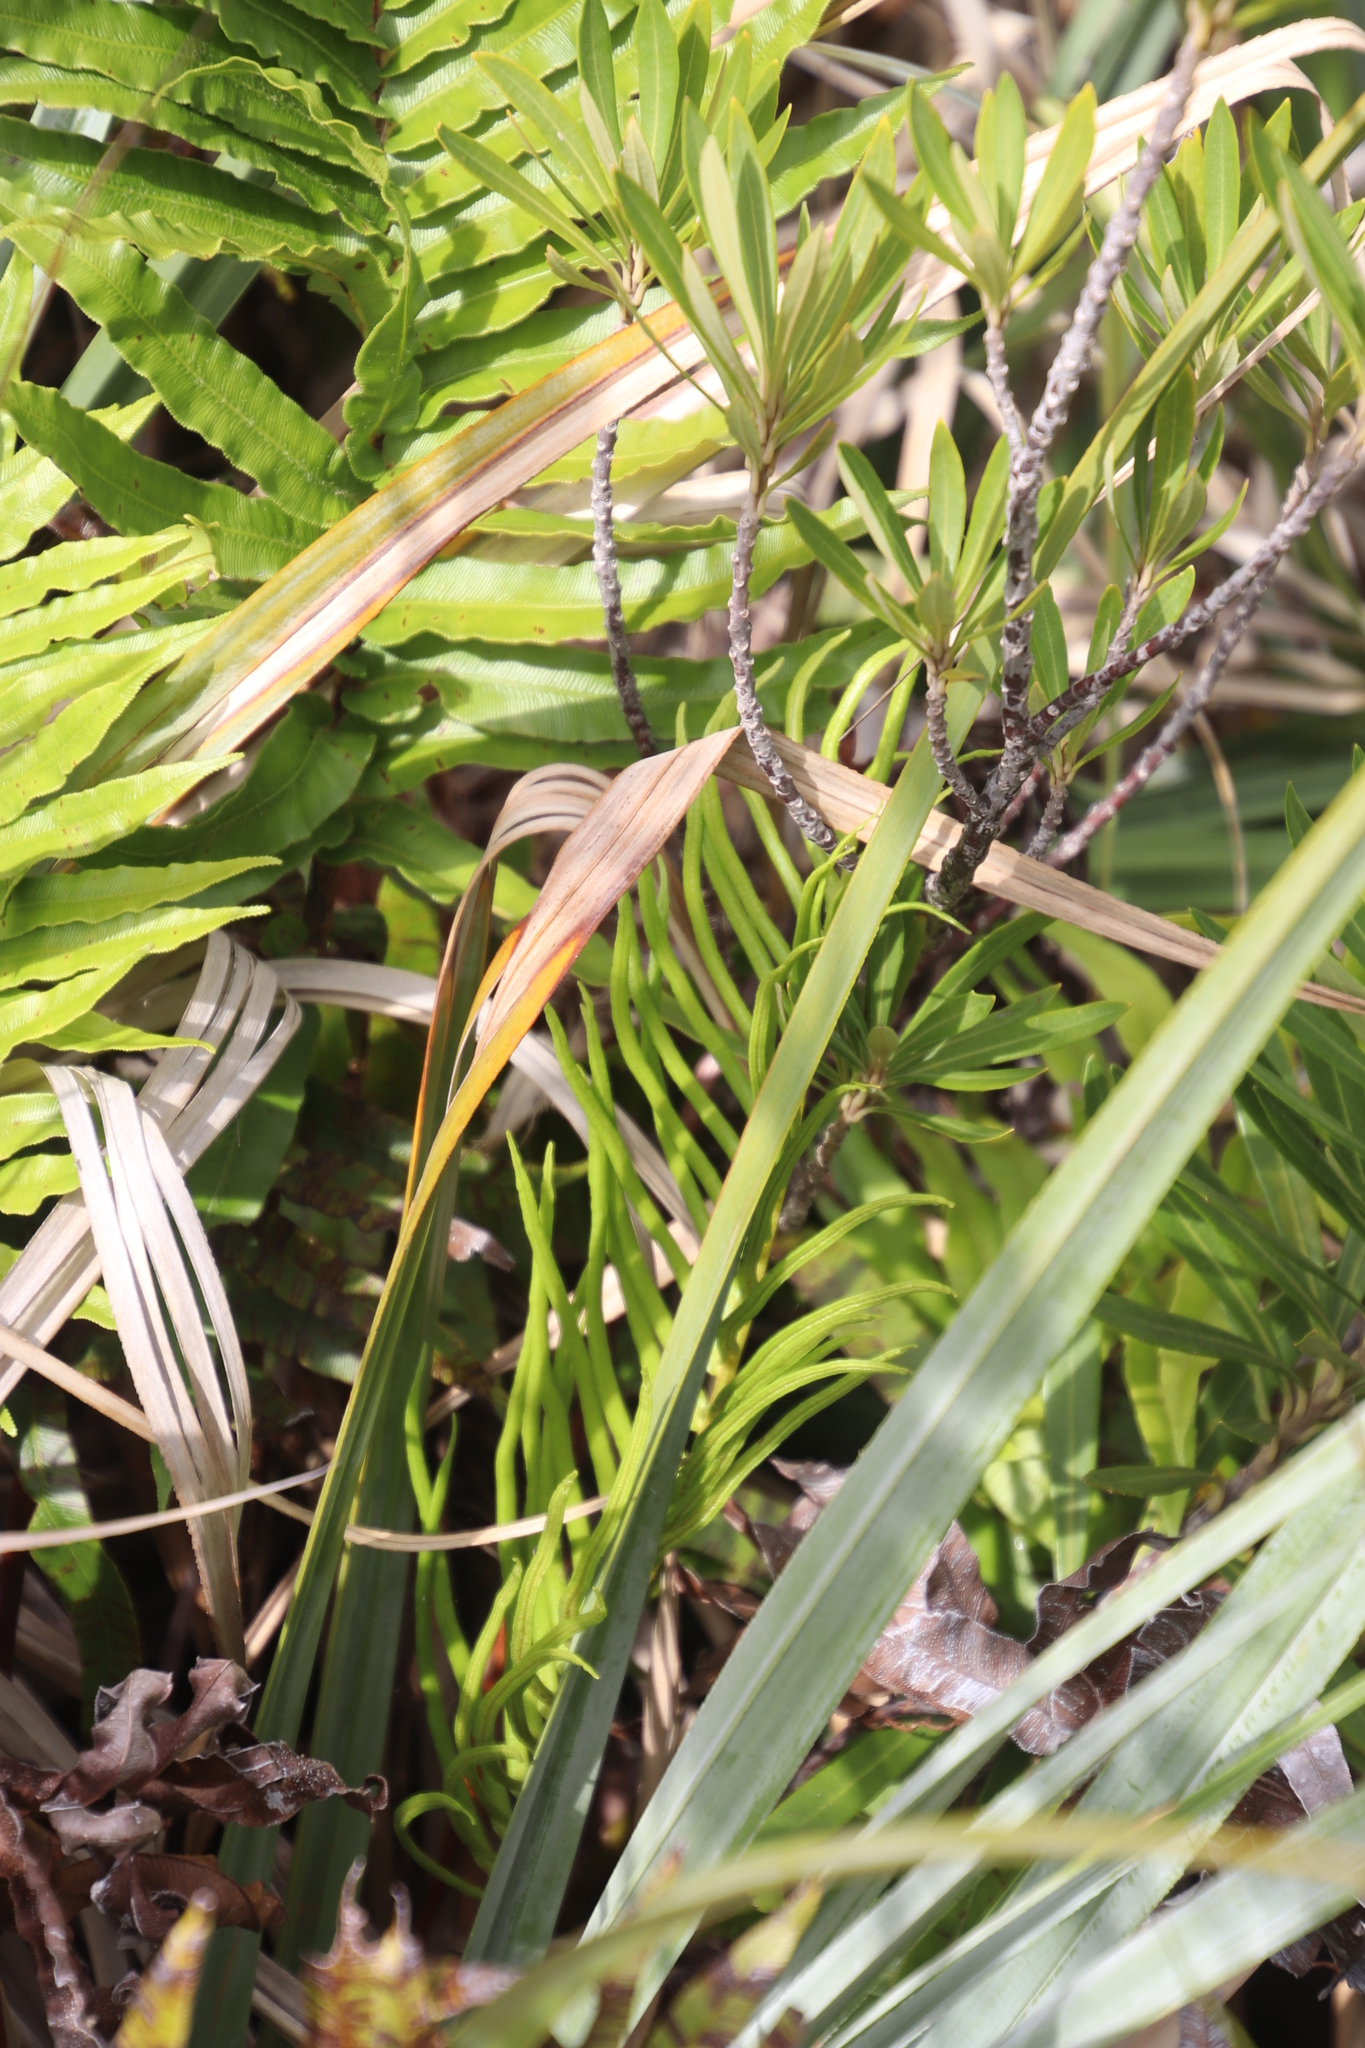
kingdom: Plantae
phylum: Tracheophyta
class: Polypodiopsida
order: Polypodiales
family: Blechnaceae
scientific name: Blechnaceae
